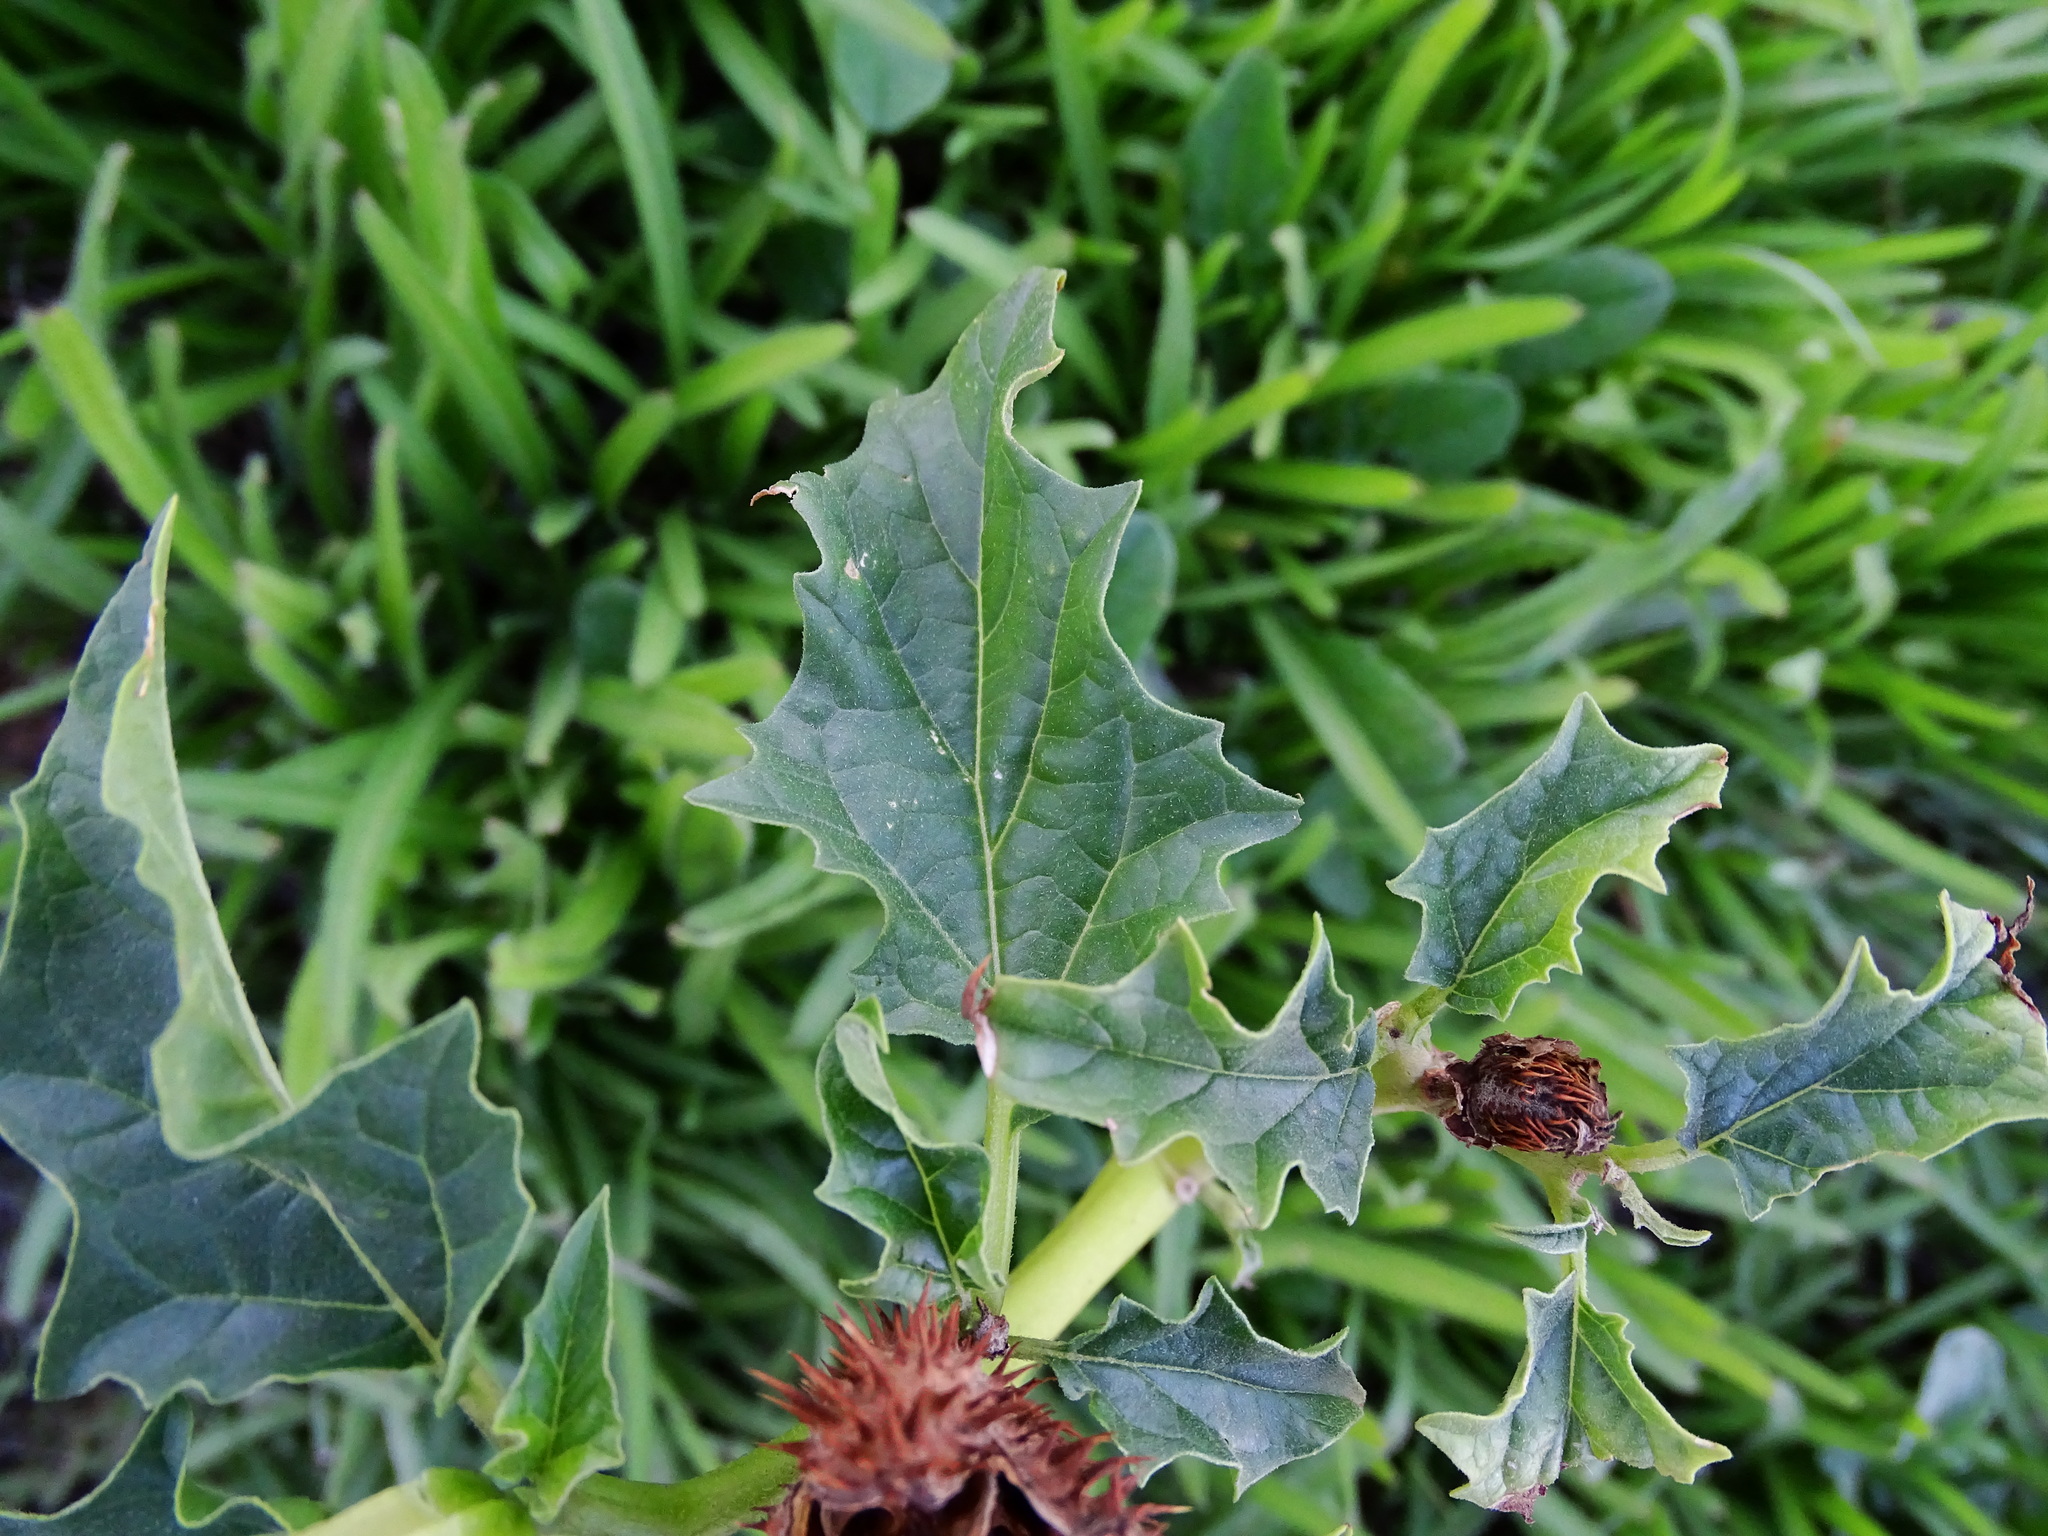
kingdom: Plantae
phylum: Tracheophyta
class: Magnoliopsida
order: Solanales
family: Solanaceae
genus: Datura
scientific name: Datura stramonium
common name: Thorn-apple
